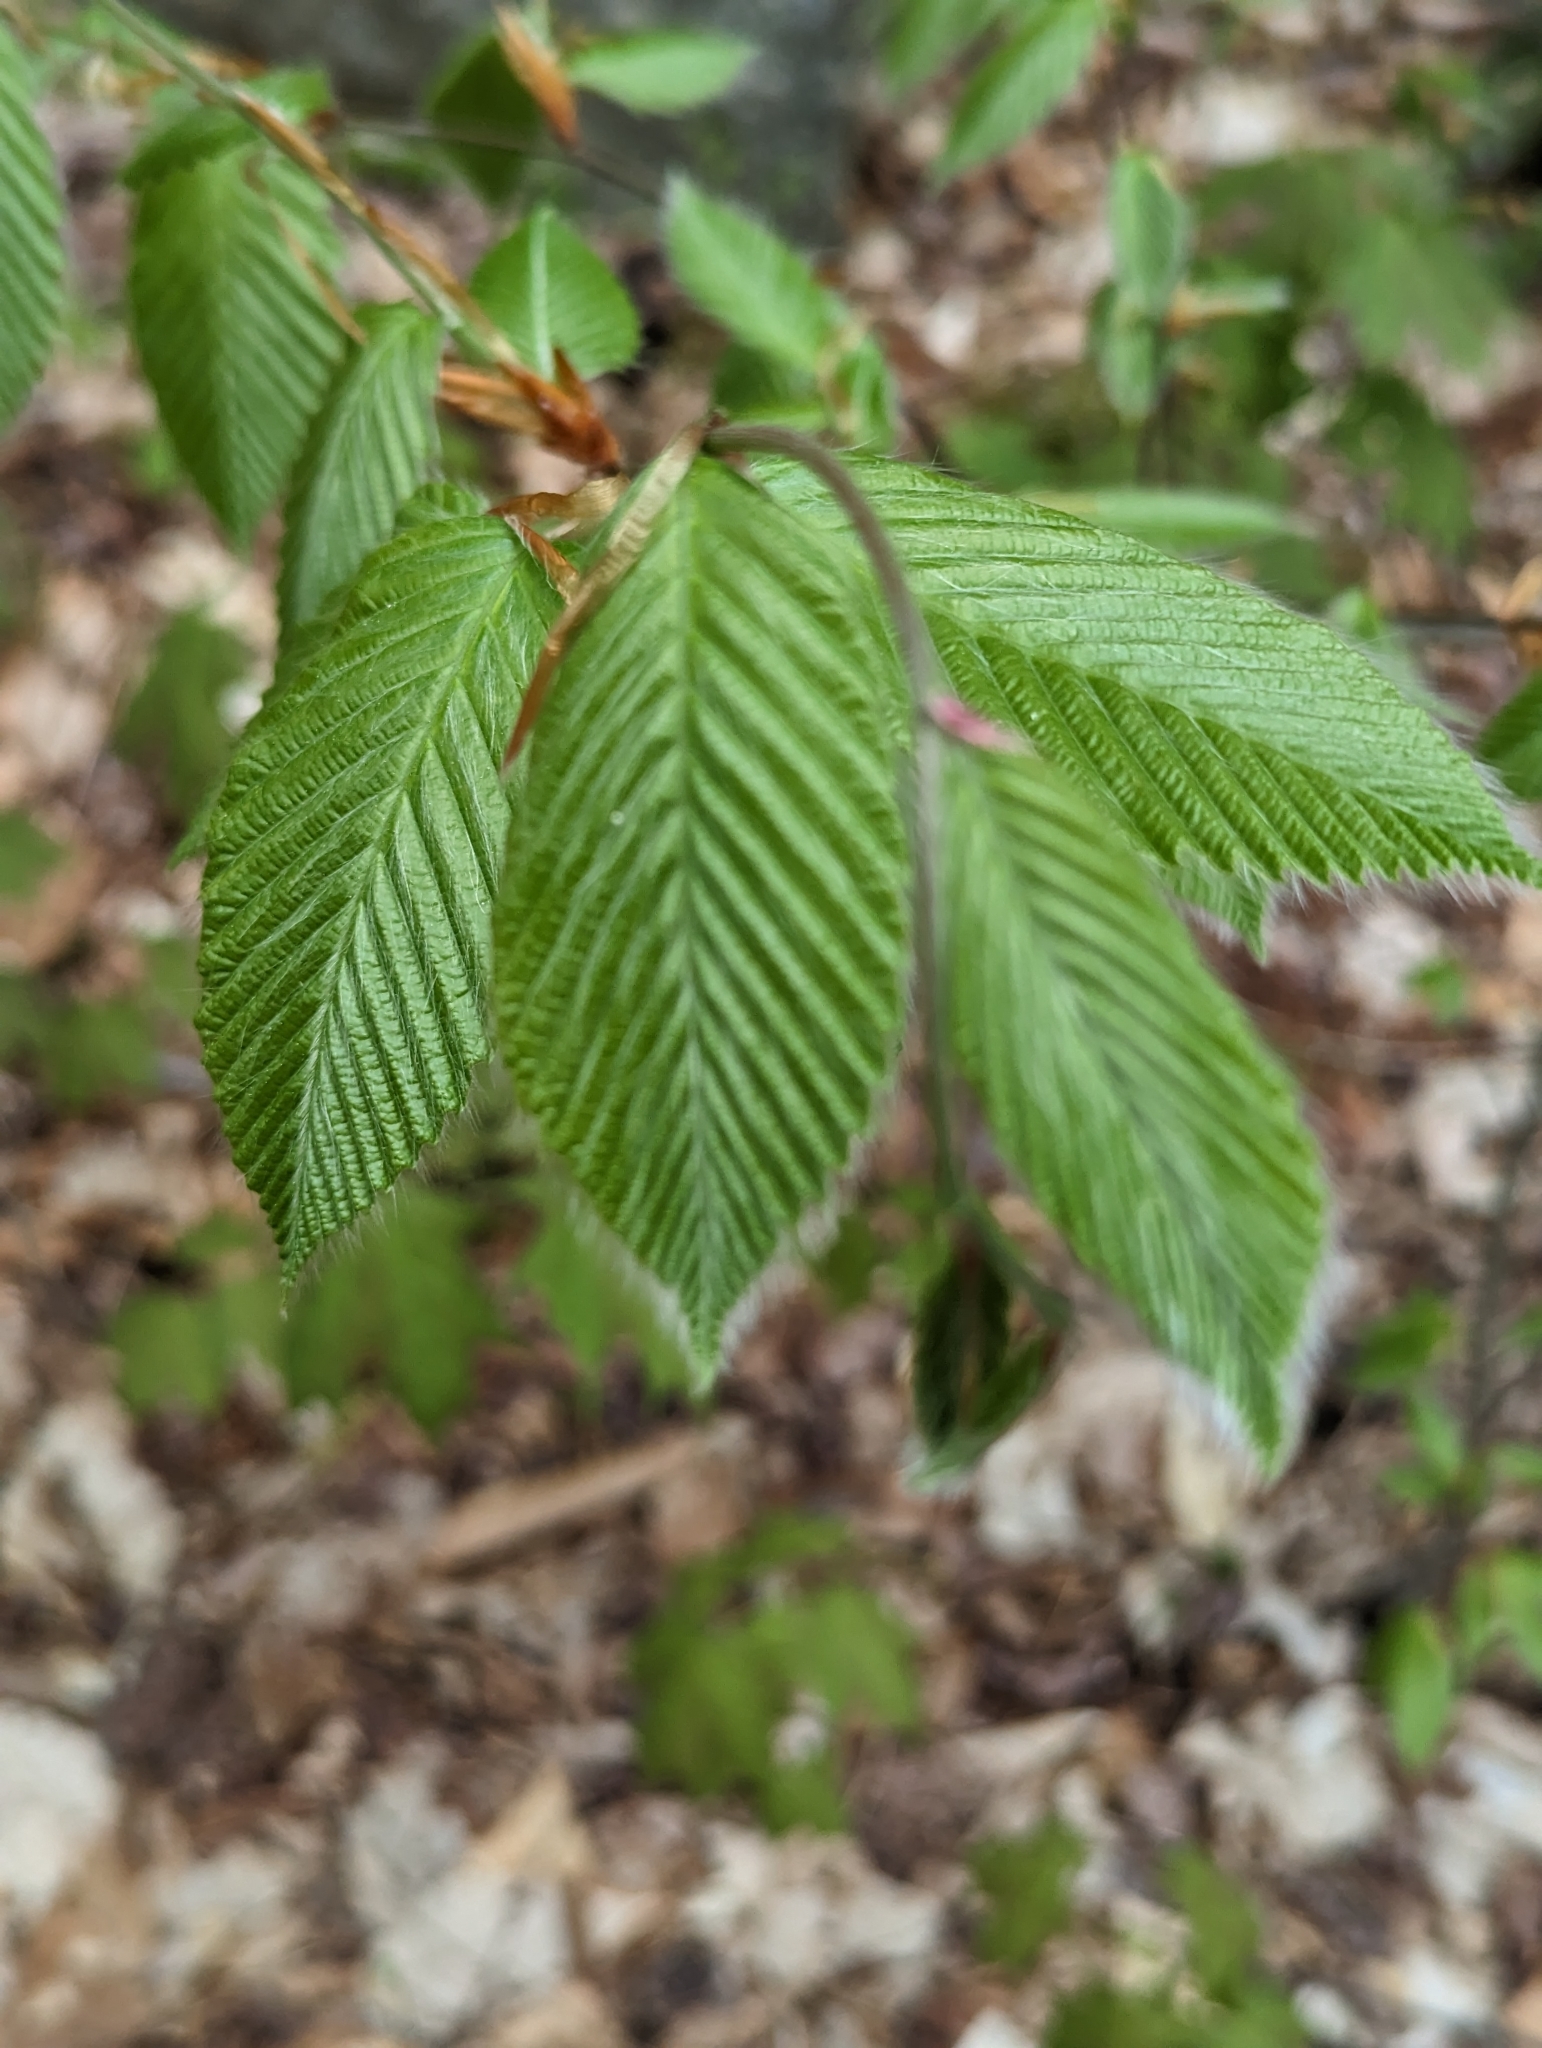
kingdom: Plantae
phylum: Tracheophyta
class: Magnoliopsida
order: Fagales
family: Fagaceae
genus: Fagus
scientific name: Fagus grandifolia
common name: American beech
